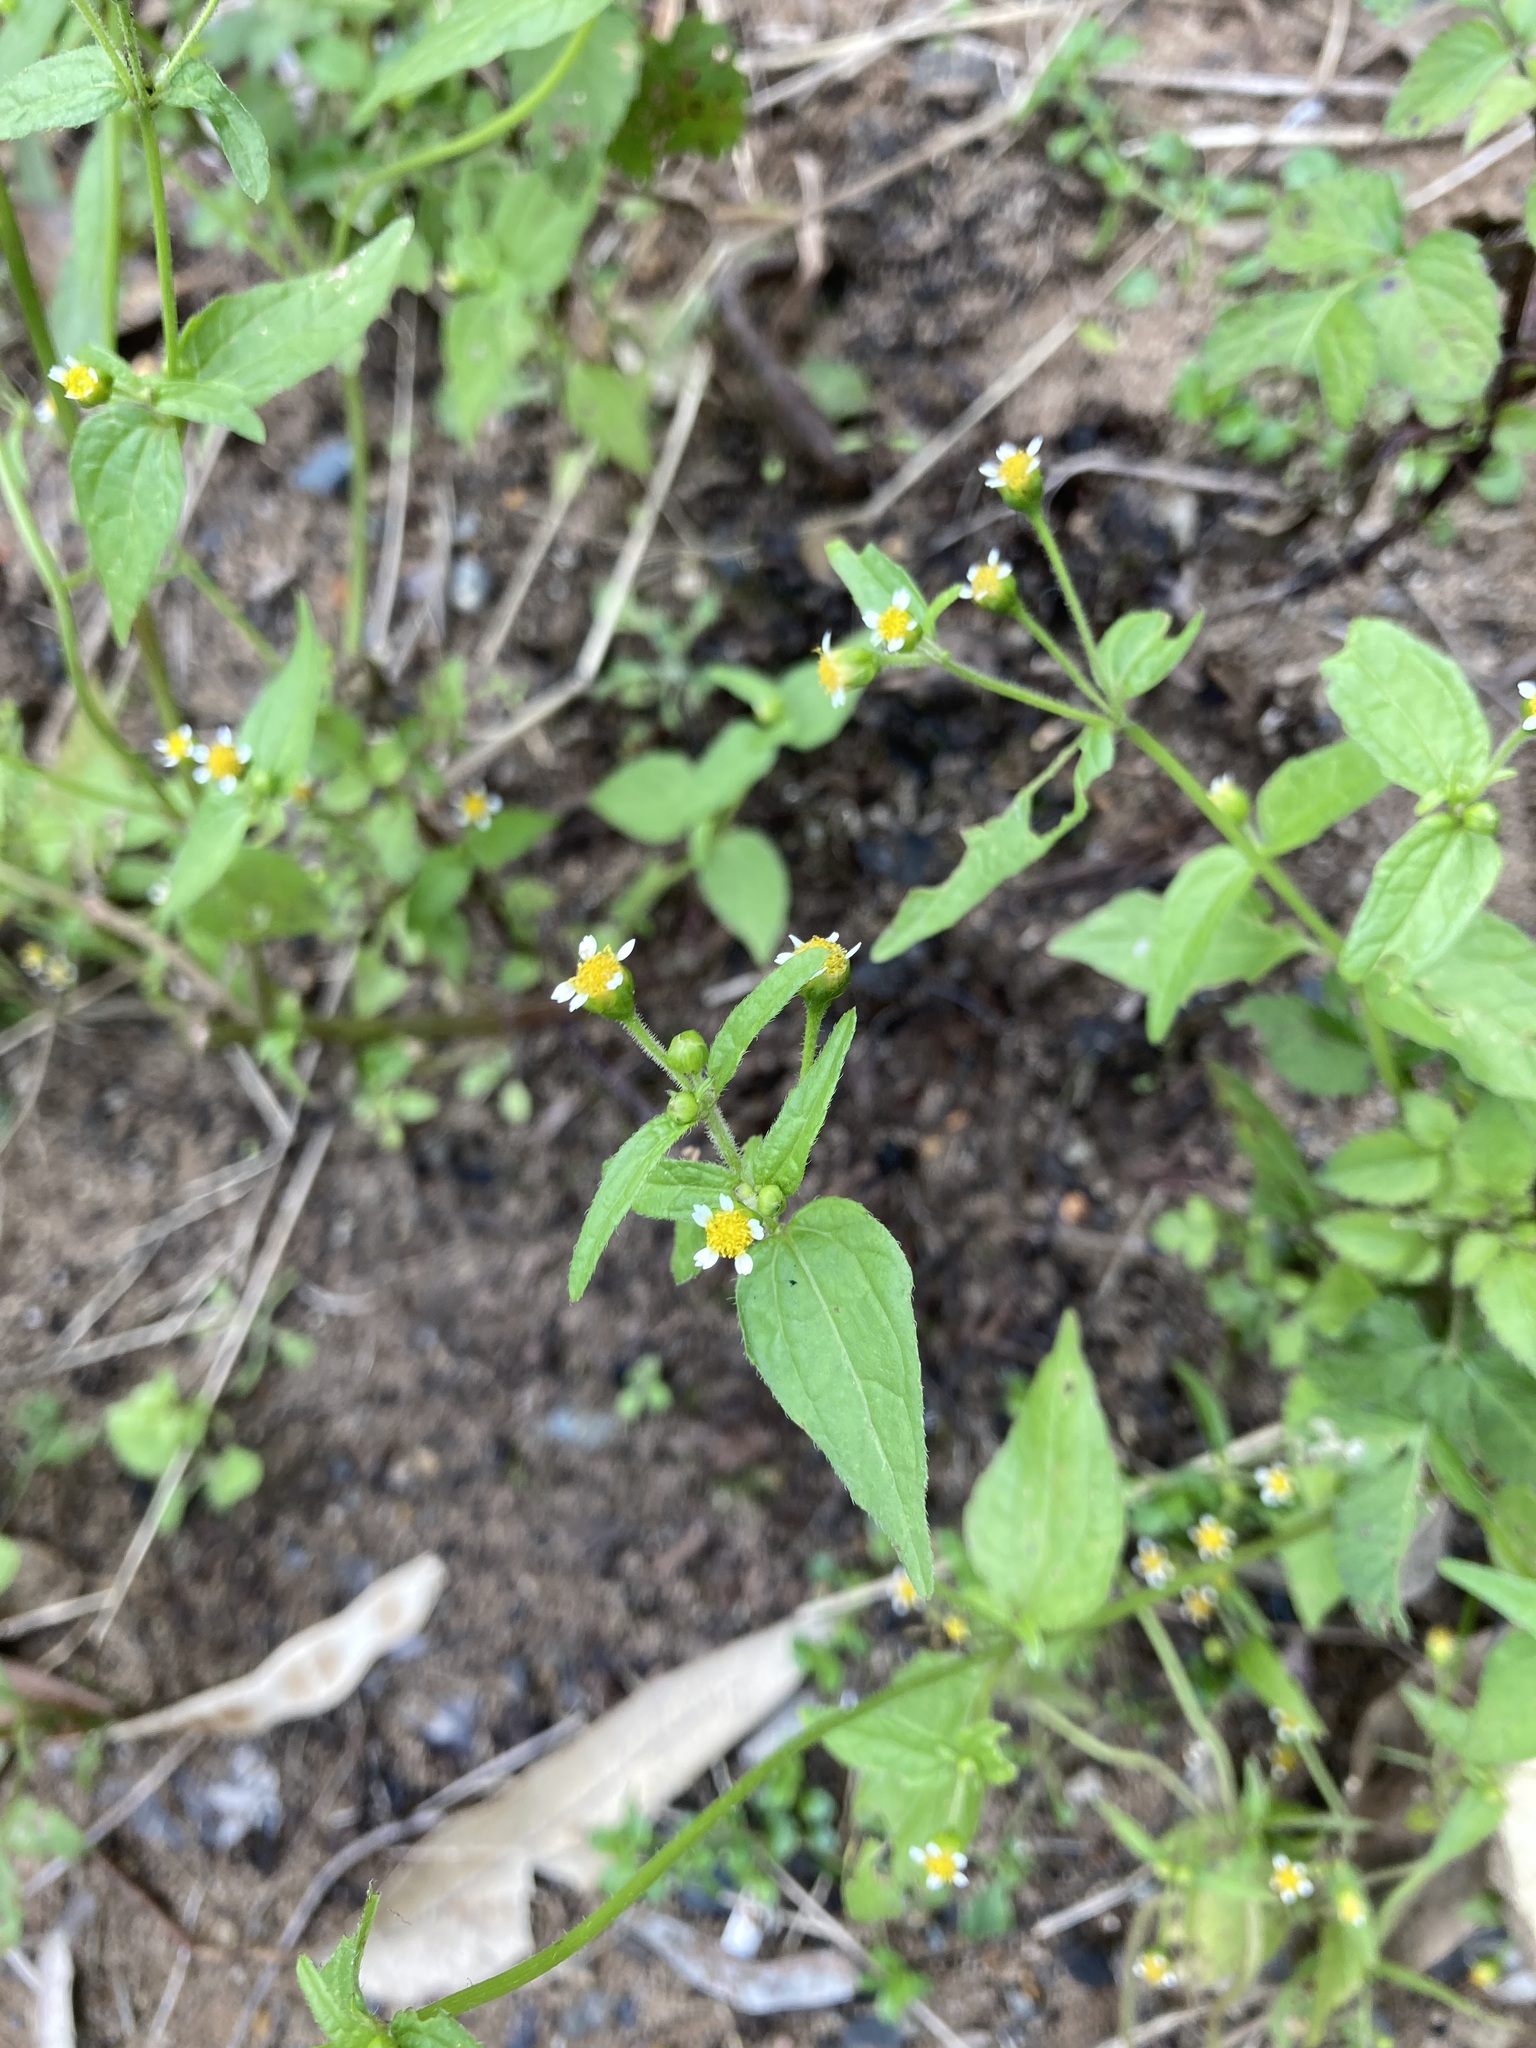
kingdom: Plantae
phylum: Tracheophyta
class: Magnoliopsida
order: Asterales
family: Asteraceae
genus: Galinsoga
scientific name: Galinsoga parviflora
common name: Gallant soldier
